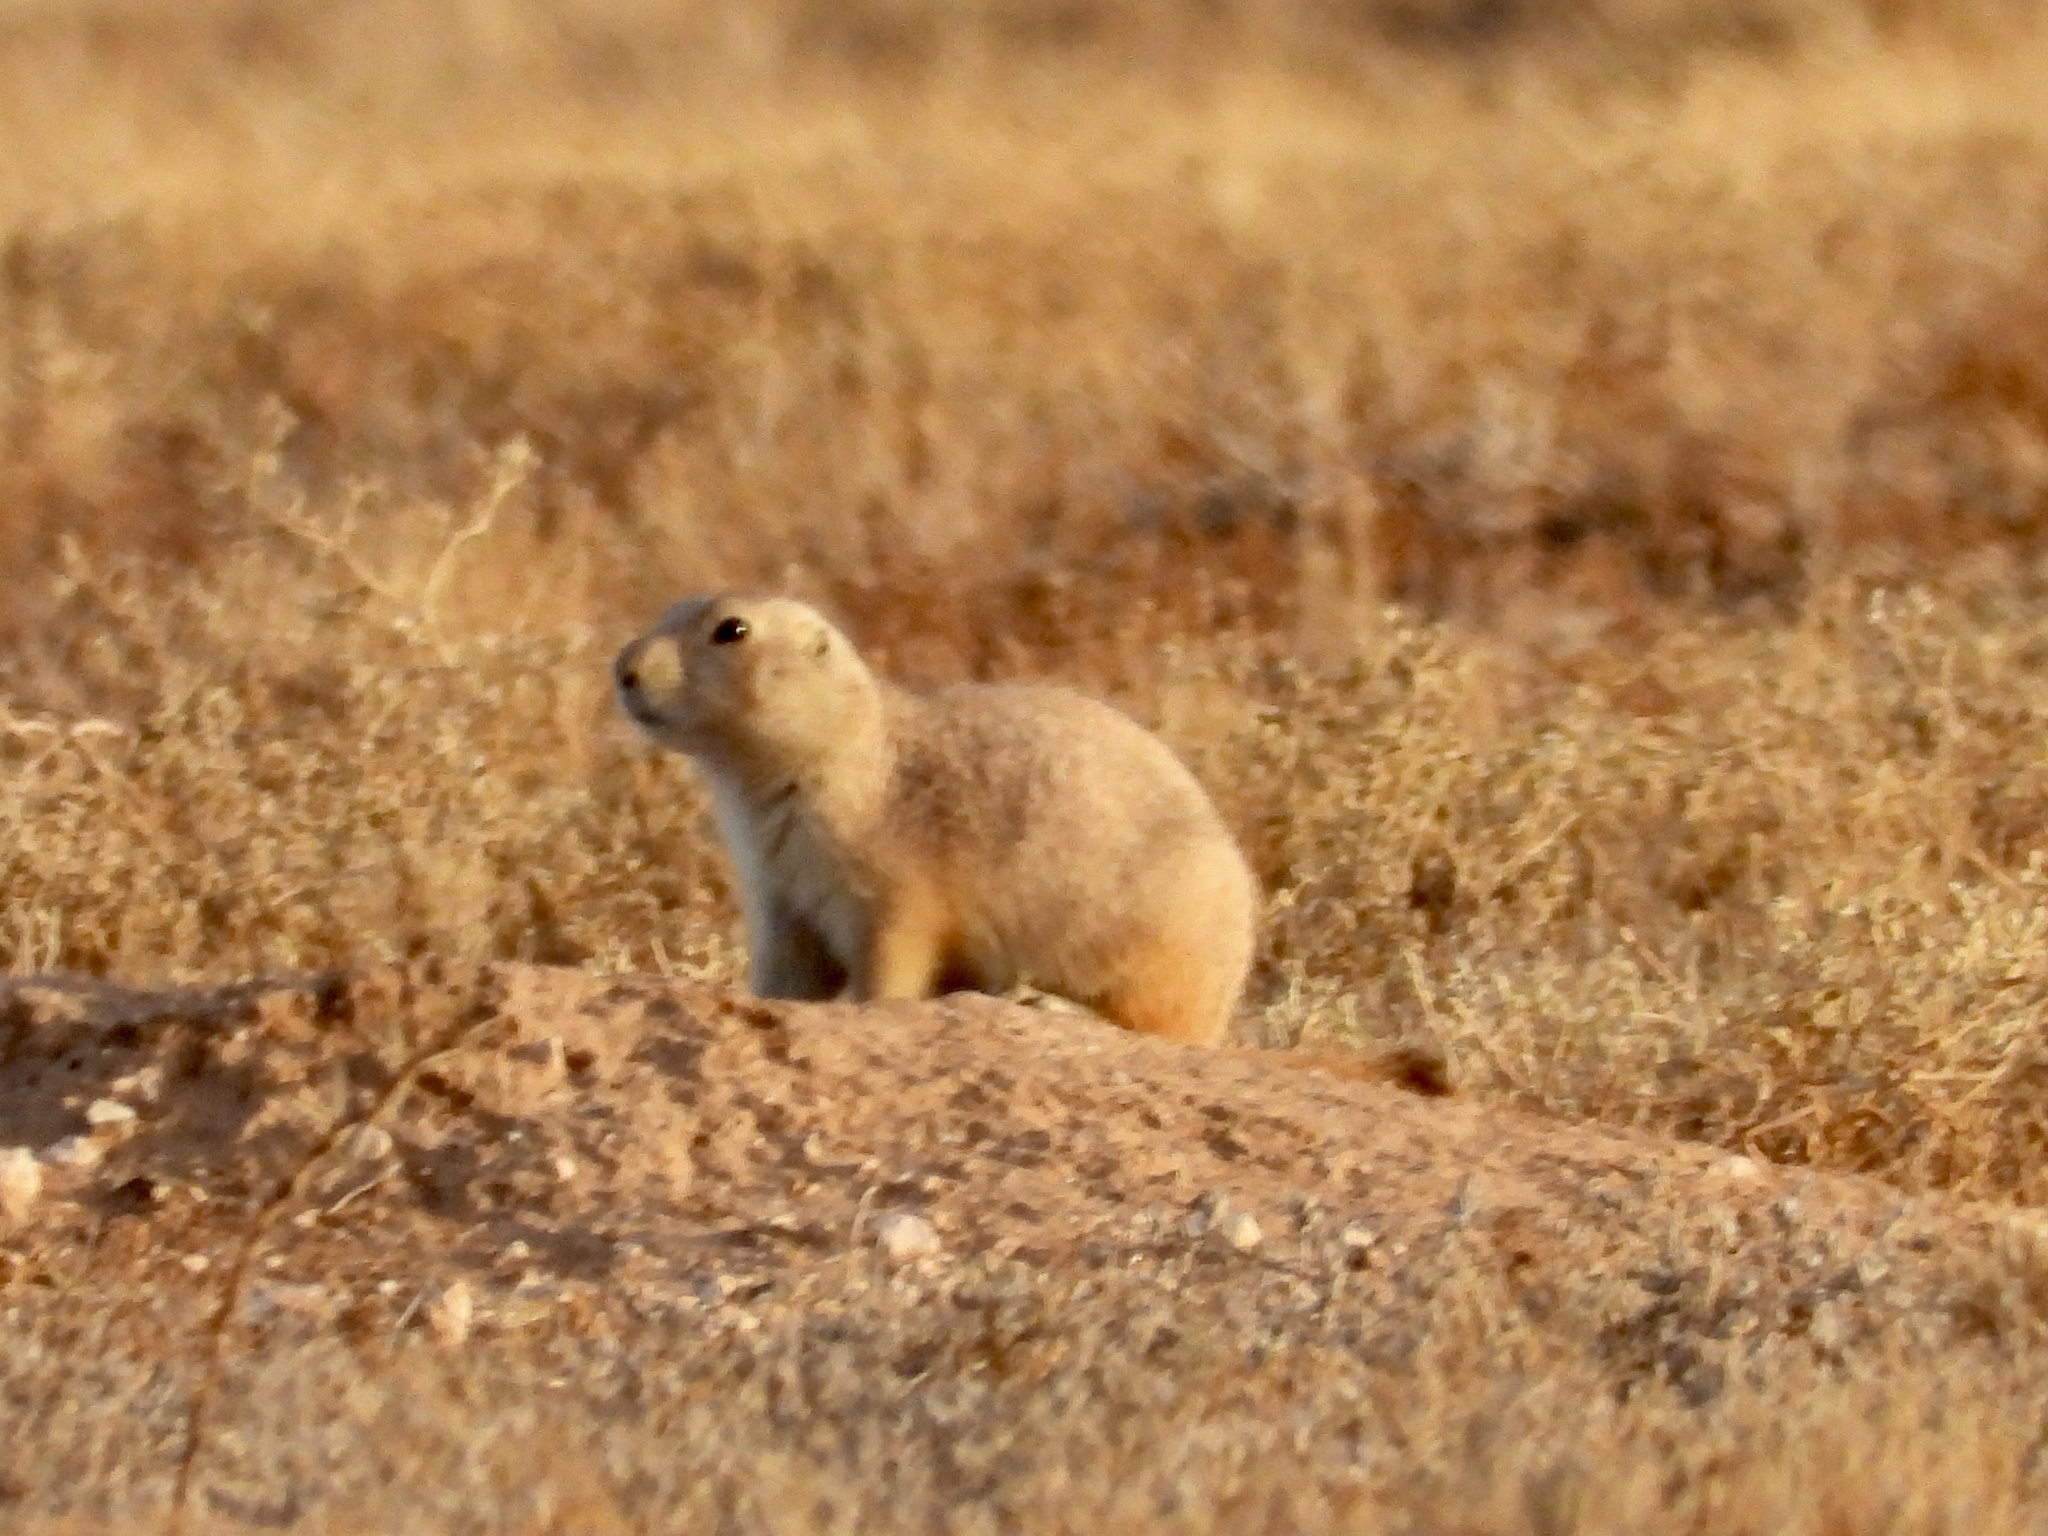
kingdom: Animalia
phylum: Chordata
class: Mammalia
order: Rodentia
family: Sciuridae
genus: Cynomys
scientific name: Cynomys ludovicianus
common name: Black-tailed prairie dog
